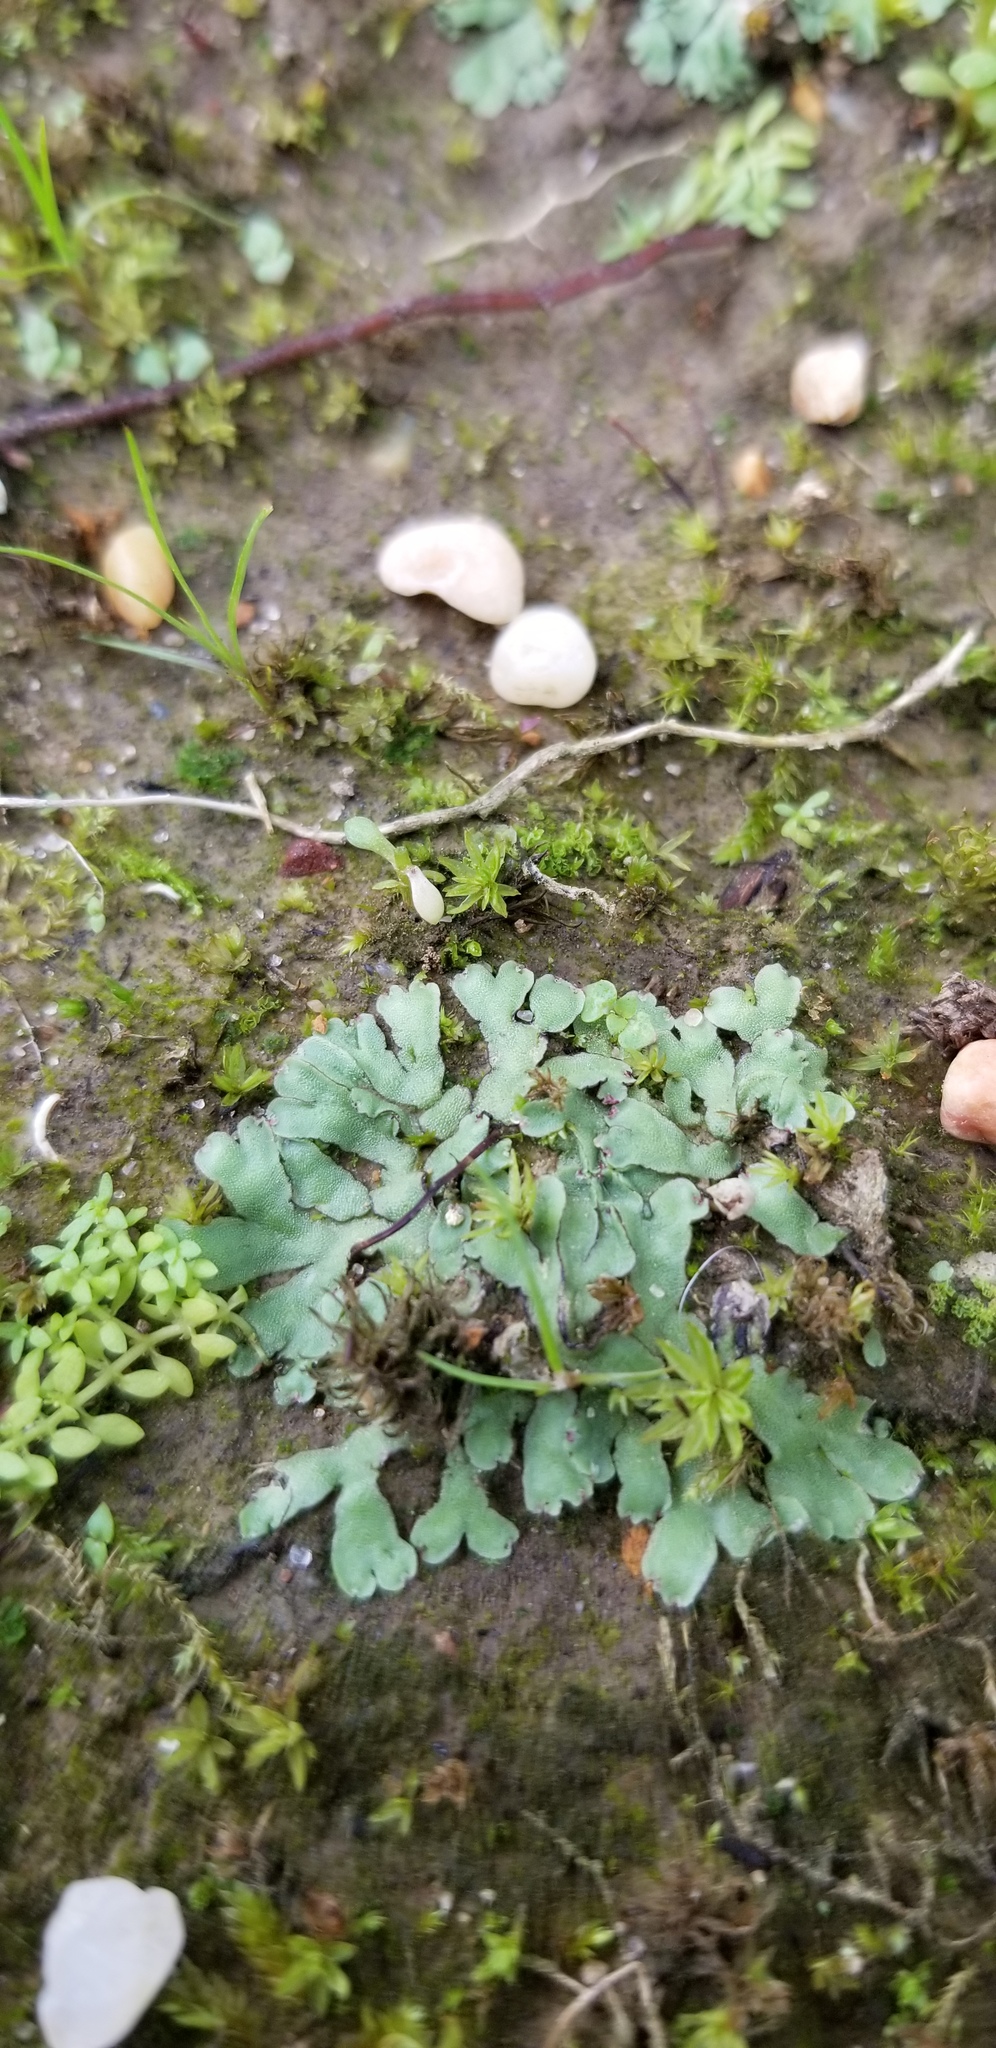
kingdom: Plantae
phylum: Marchantiophyta
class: Marchantiopsida
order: Marchantiales
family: Aytoniaceae
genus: Asterella
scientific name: Asterella tenella
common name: Delicate starwort
